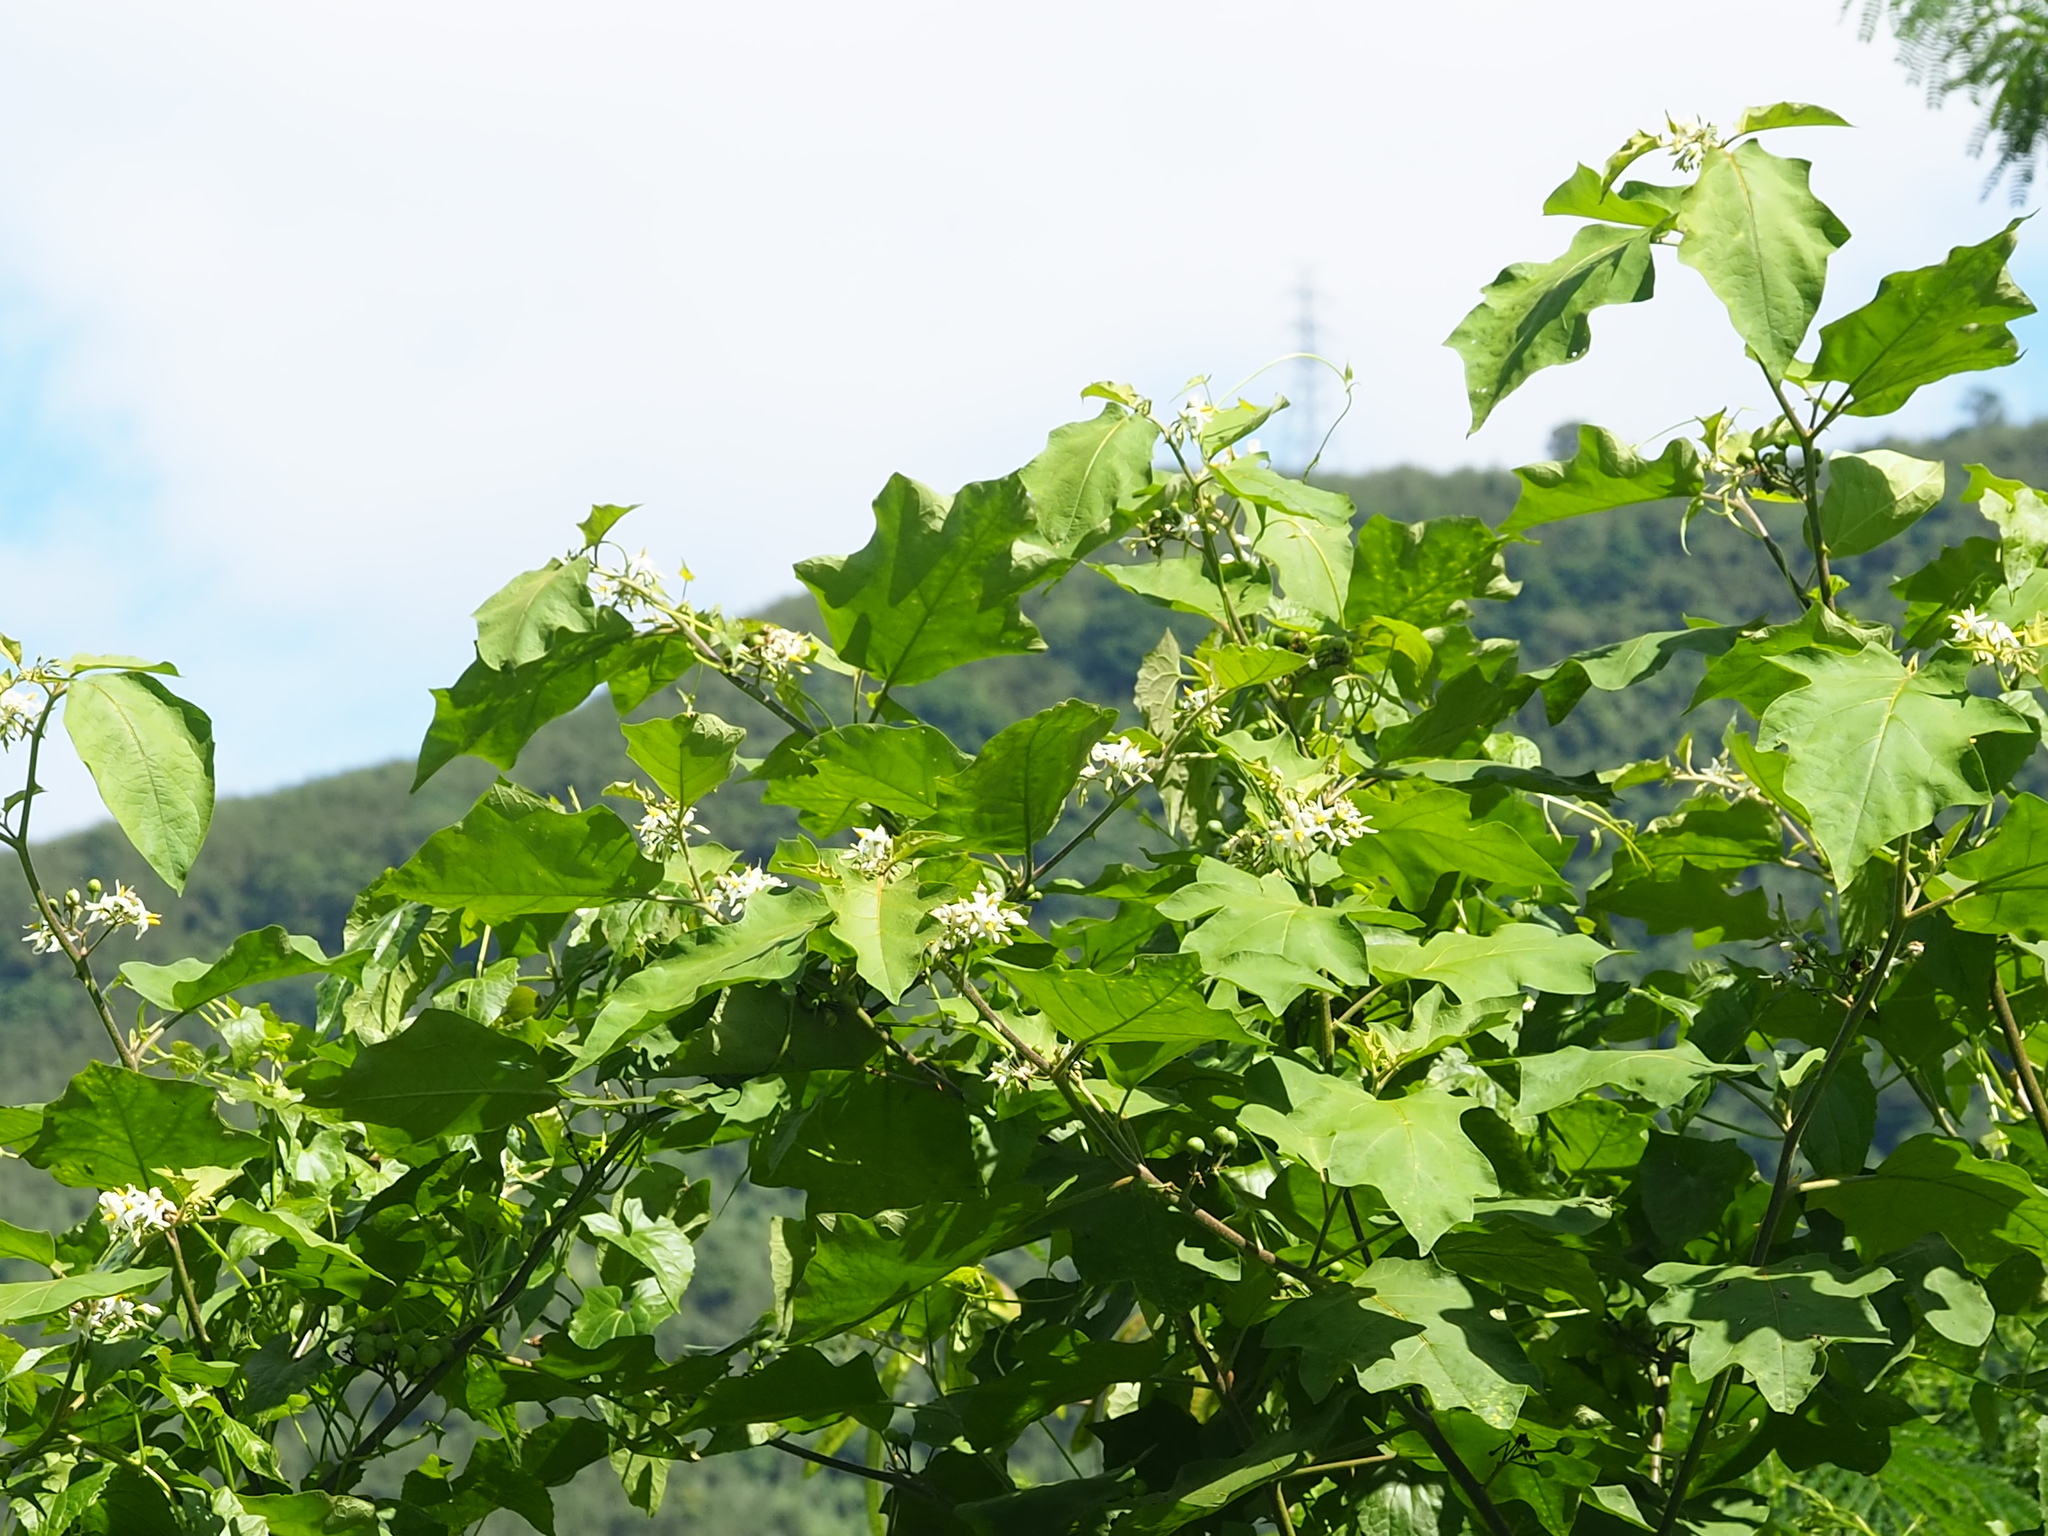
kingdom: Plantae
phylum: Tracheophyta
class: Magnoliopsida
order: Solanales
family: Solanaceae
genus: Solanum
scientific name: Solanum torvum
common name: Turkey berry
